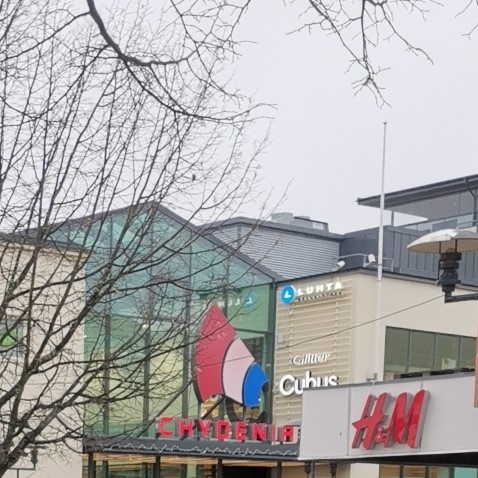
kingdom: Animalia
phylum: Chordata
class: Aves
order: Passeriformes
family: Paridae
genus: Parus
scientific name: Parus major
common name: Great tit
